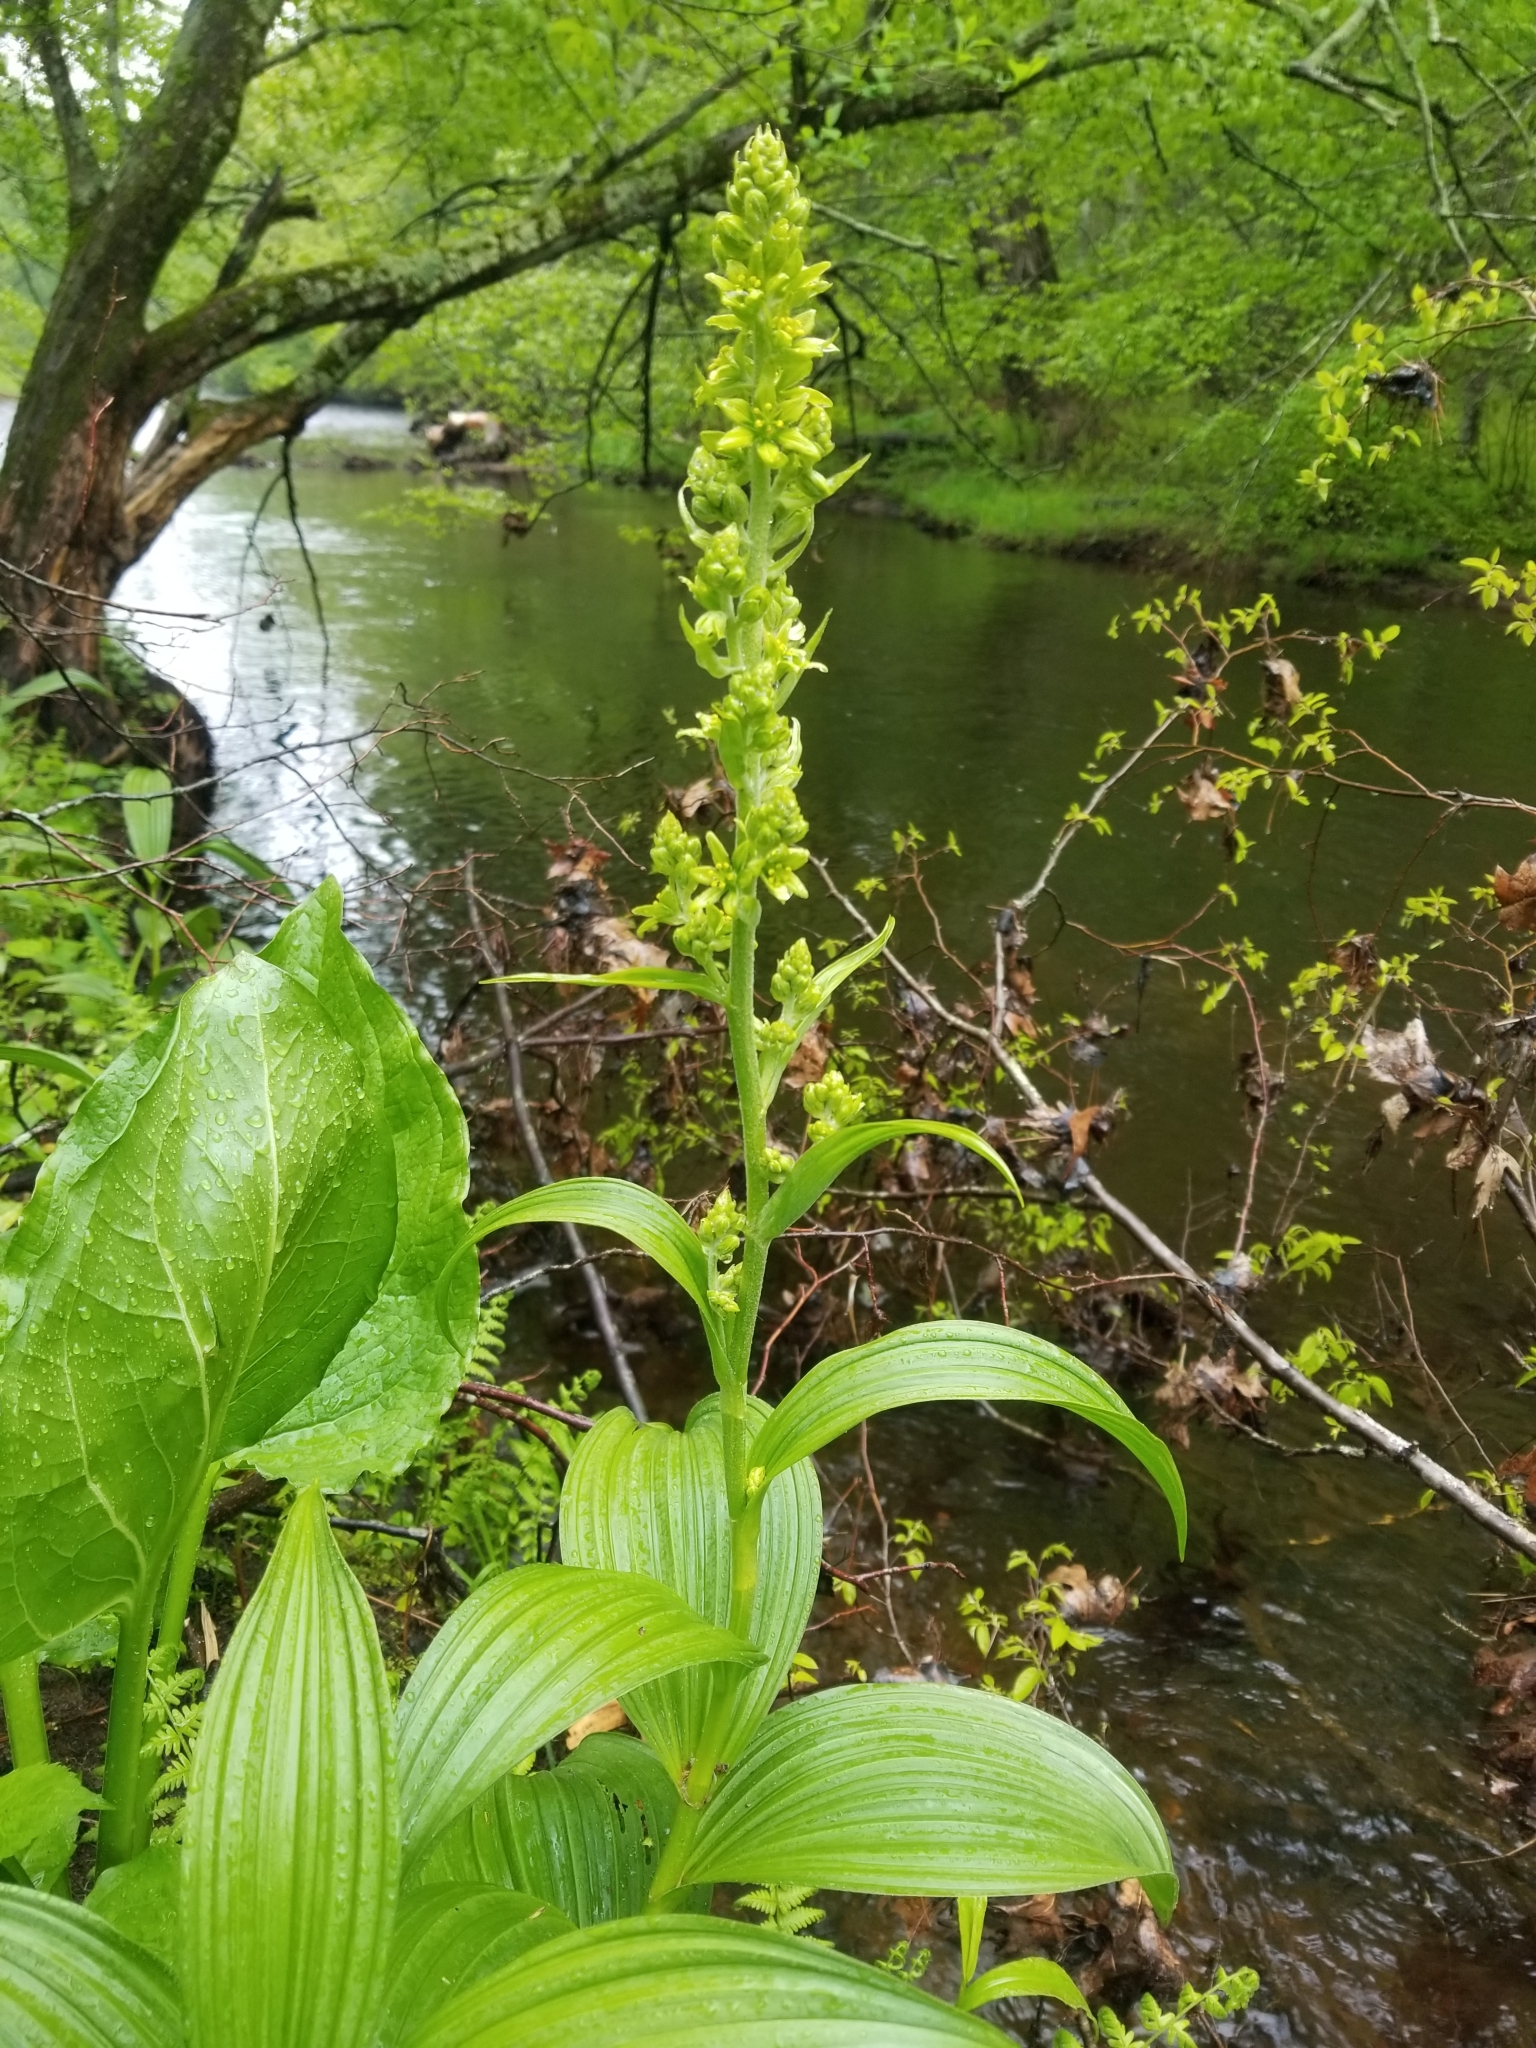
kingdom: Plantae
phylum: Tracheophyta
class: Liliopsida
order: Liliales
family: Melanthiaceae
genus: Veratrum
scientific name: Veratrum viride
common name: American false hellebore
